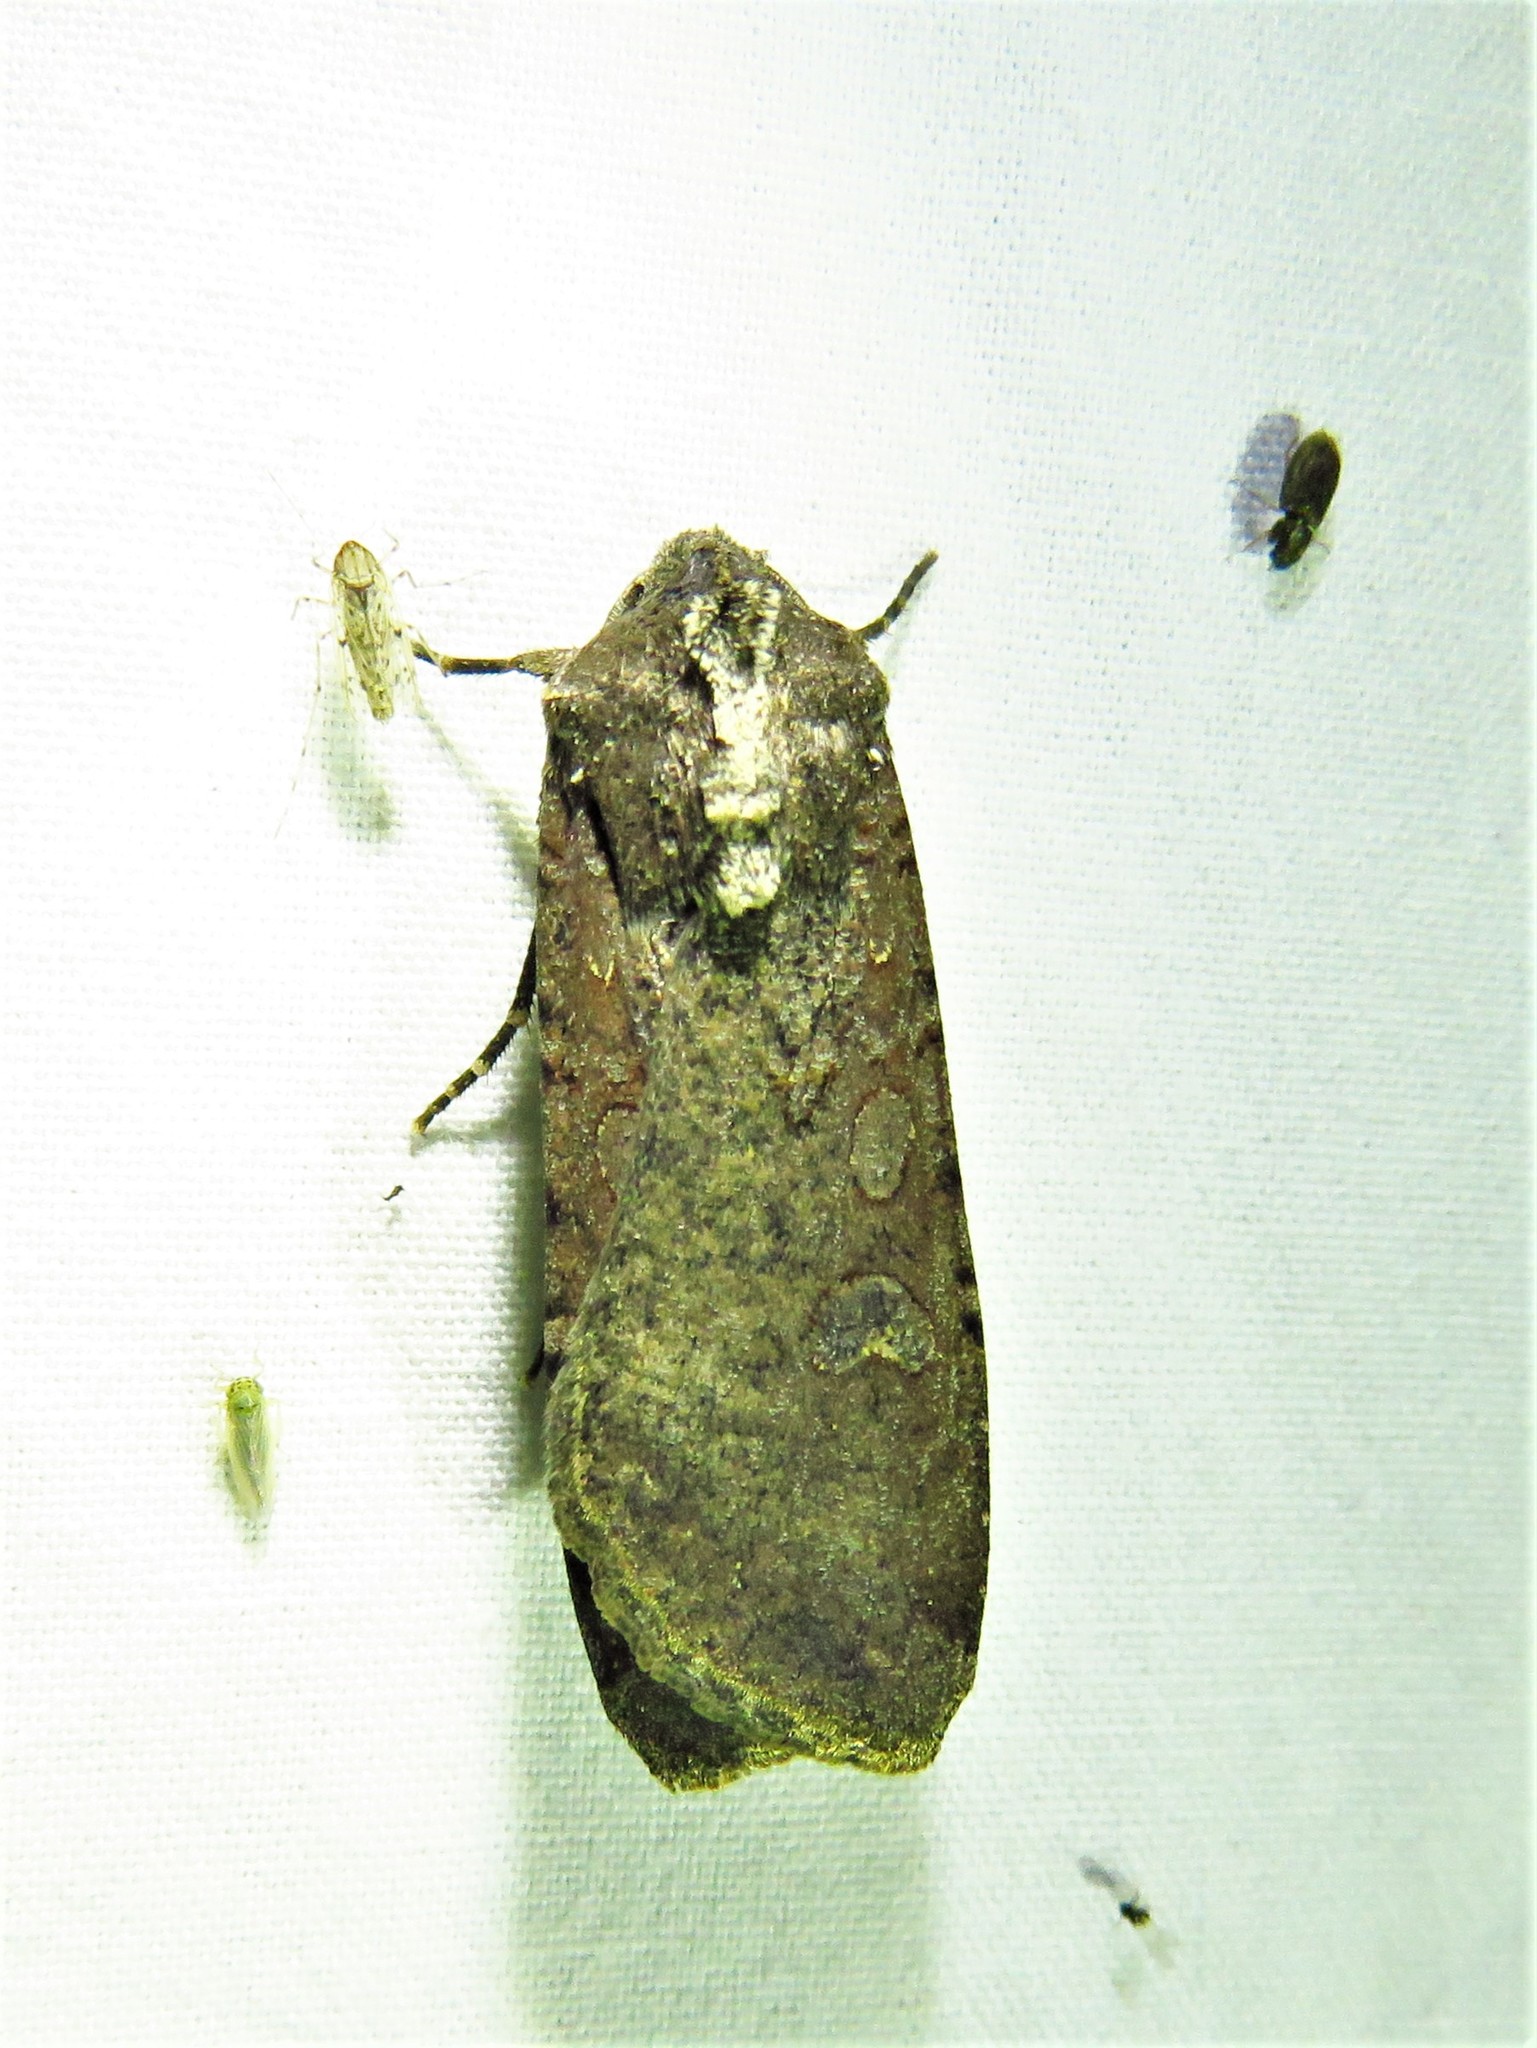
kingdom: Animalia
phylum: Arthropoda
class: Insecta
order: Lepidoptera
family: Noctuidae
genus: Peridroma
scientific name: Peridroma saucia
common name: Pearly underwing
